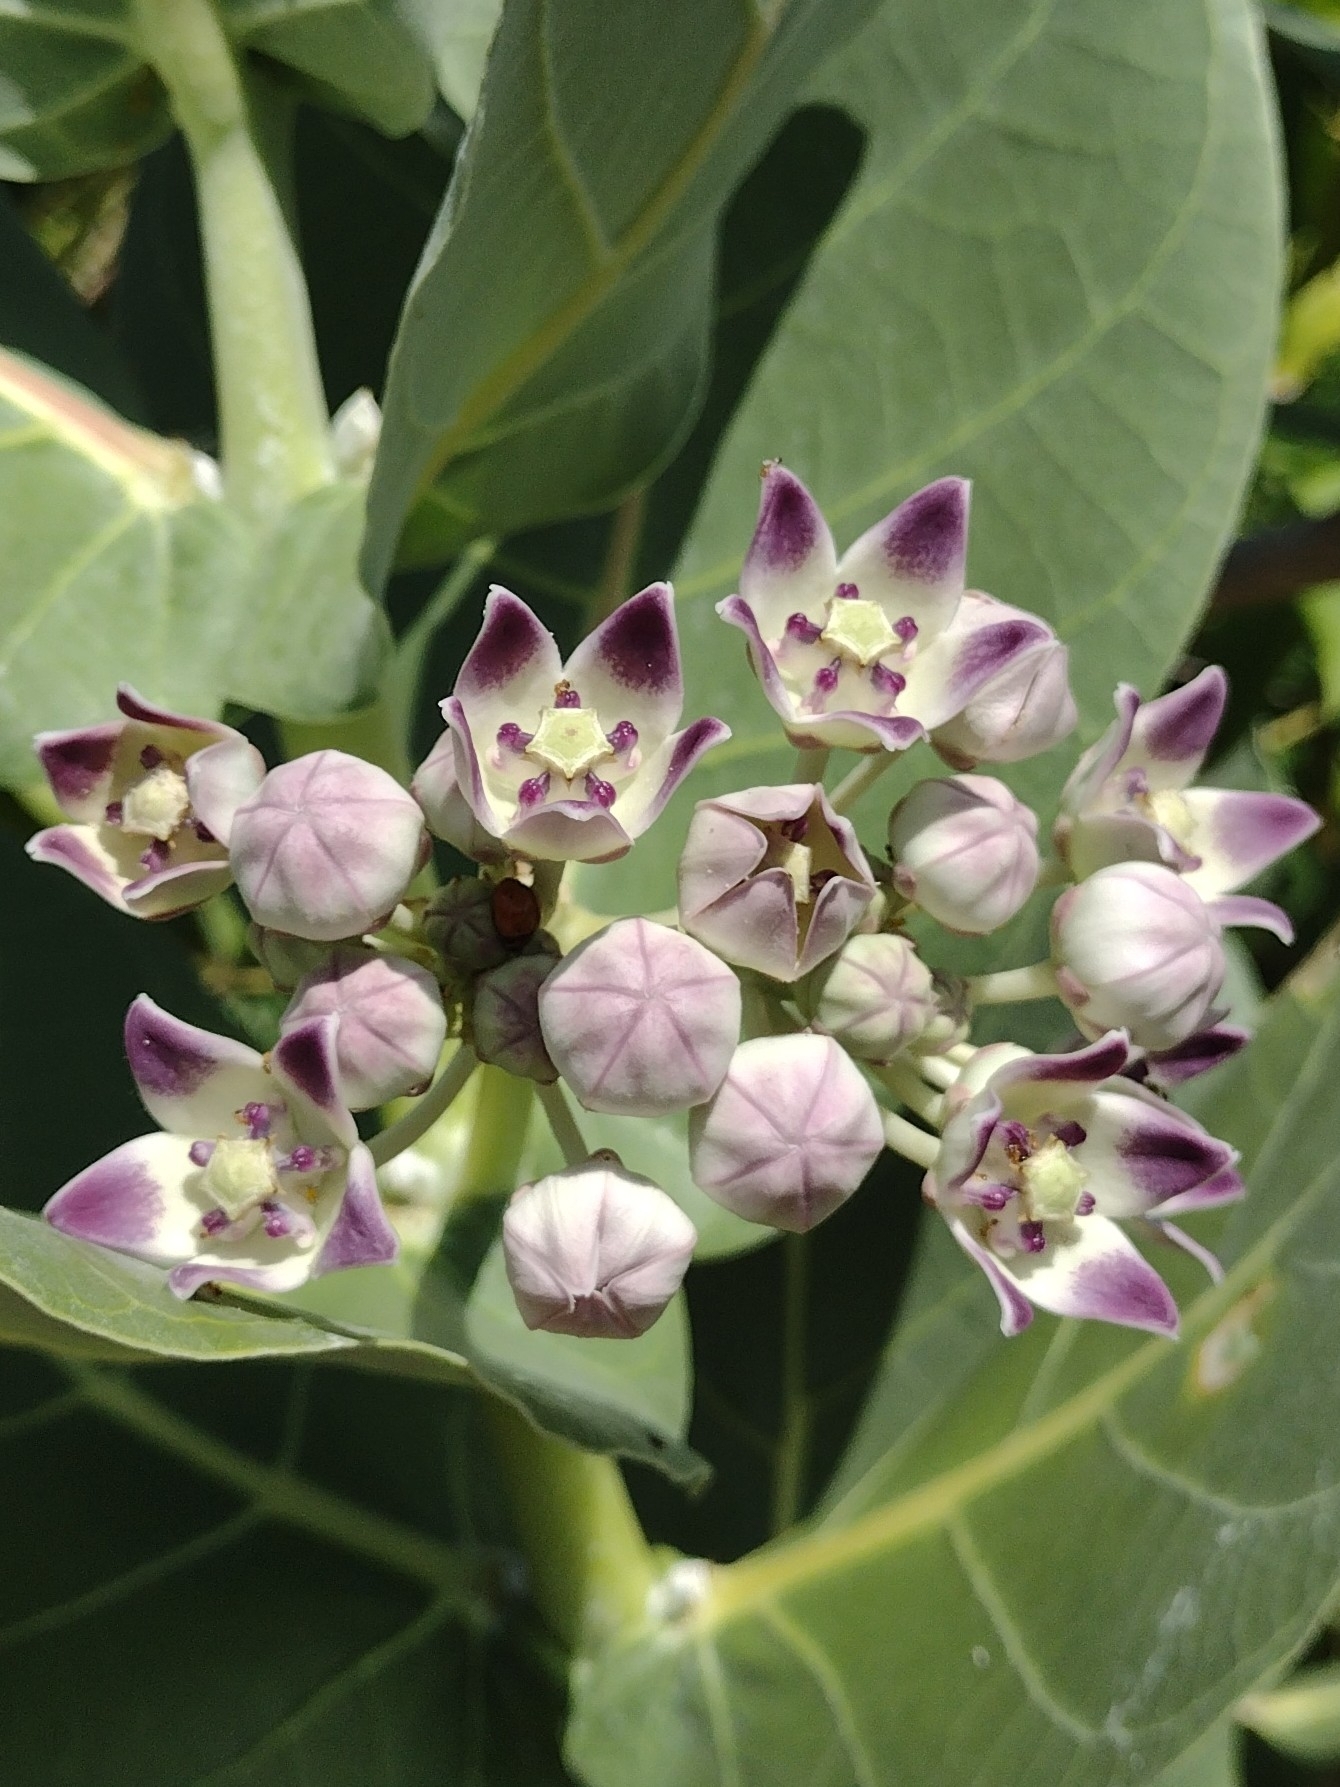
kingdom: Plantae
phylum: Tracheophyta
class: Magnoliopsida
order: Gentianales
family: Apocynaceae
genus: Calotropis
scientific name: Calotropis procera
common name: Roostertree
